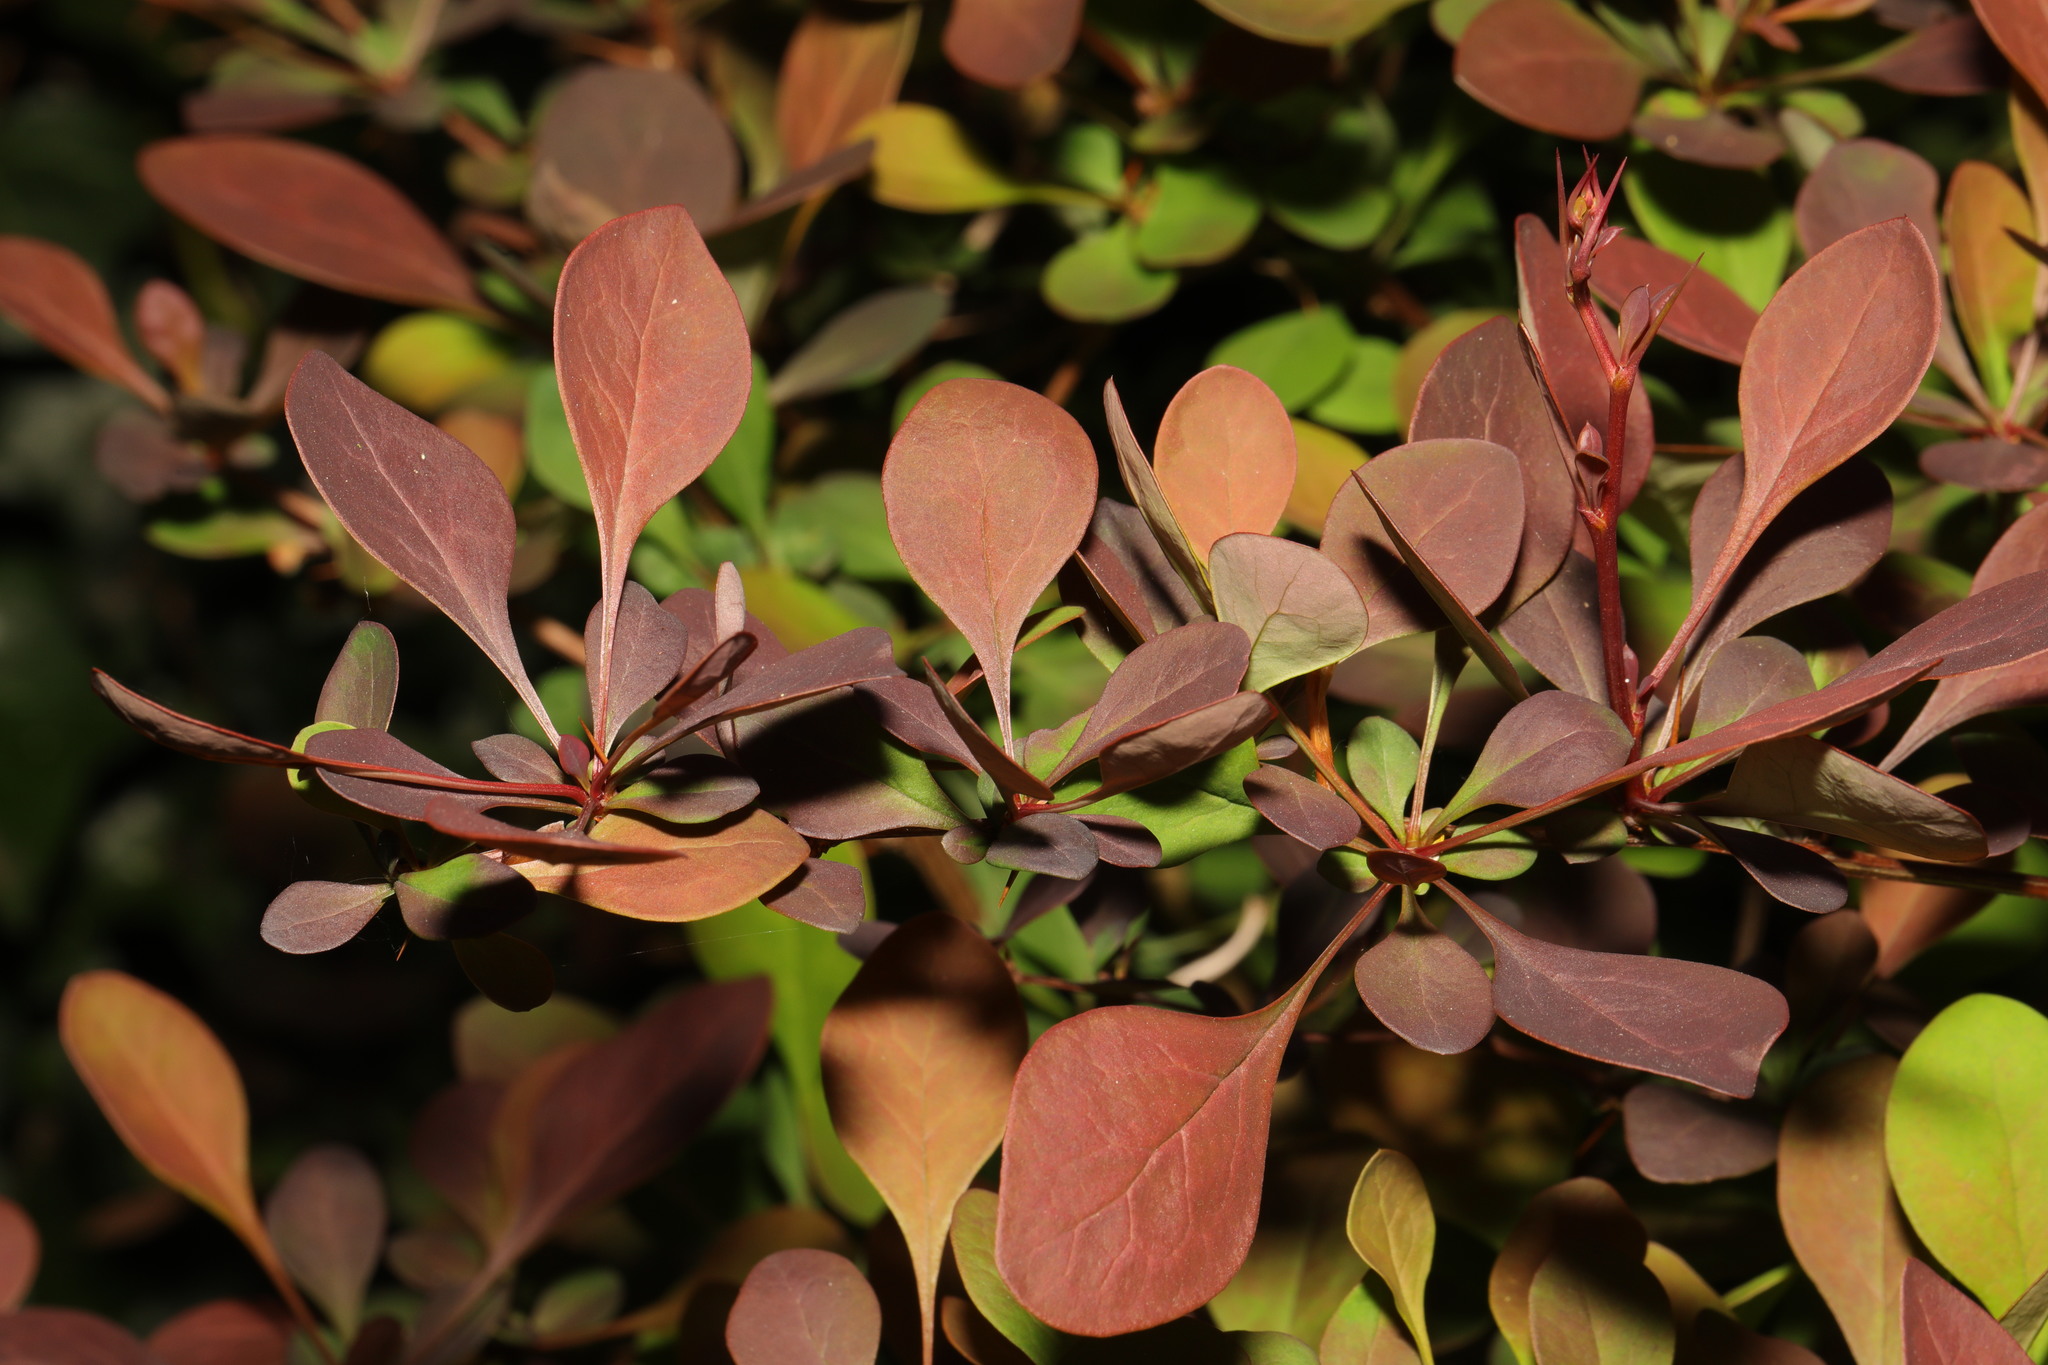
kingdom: Plantae
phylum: Tracheophyta
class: Magnoliopsida
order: Ranunculales
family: Berberidaceae
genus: Berberis
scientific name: Berberis thunbergii
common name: Japanese barberry
